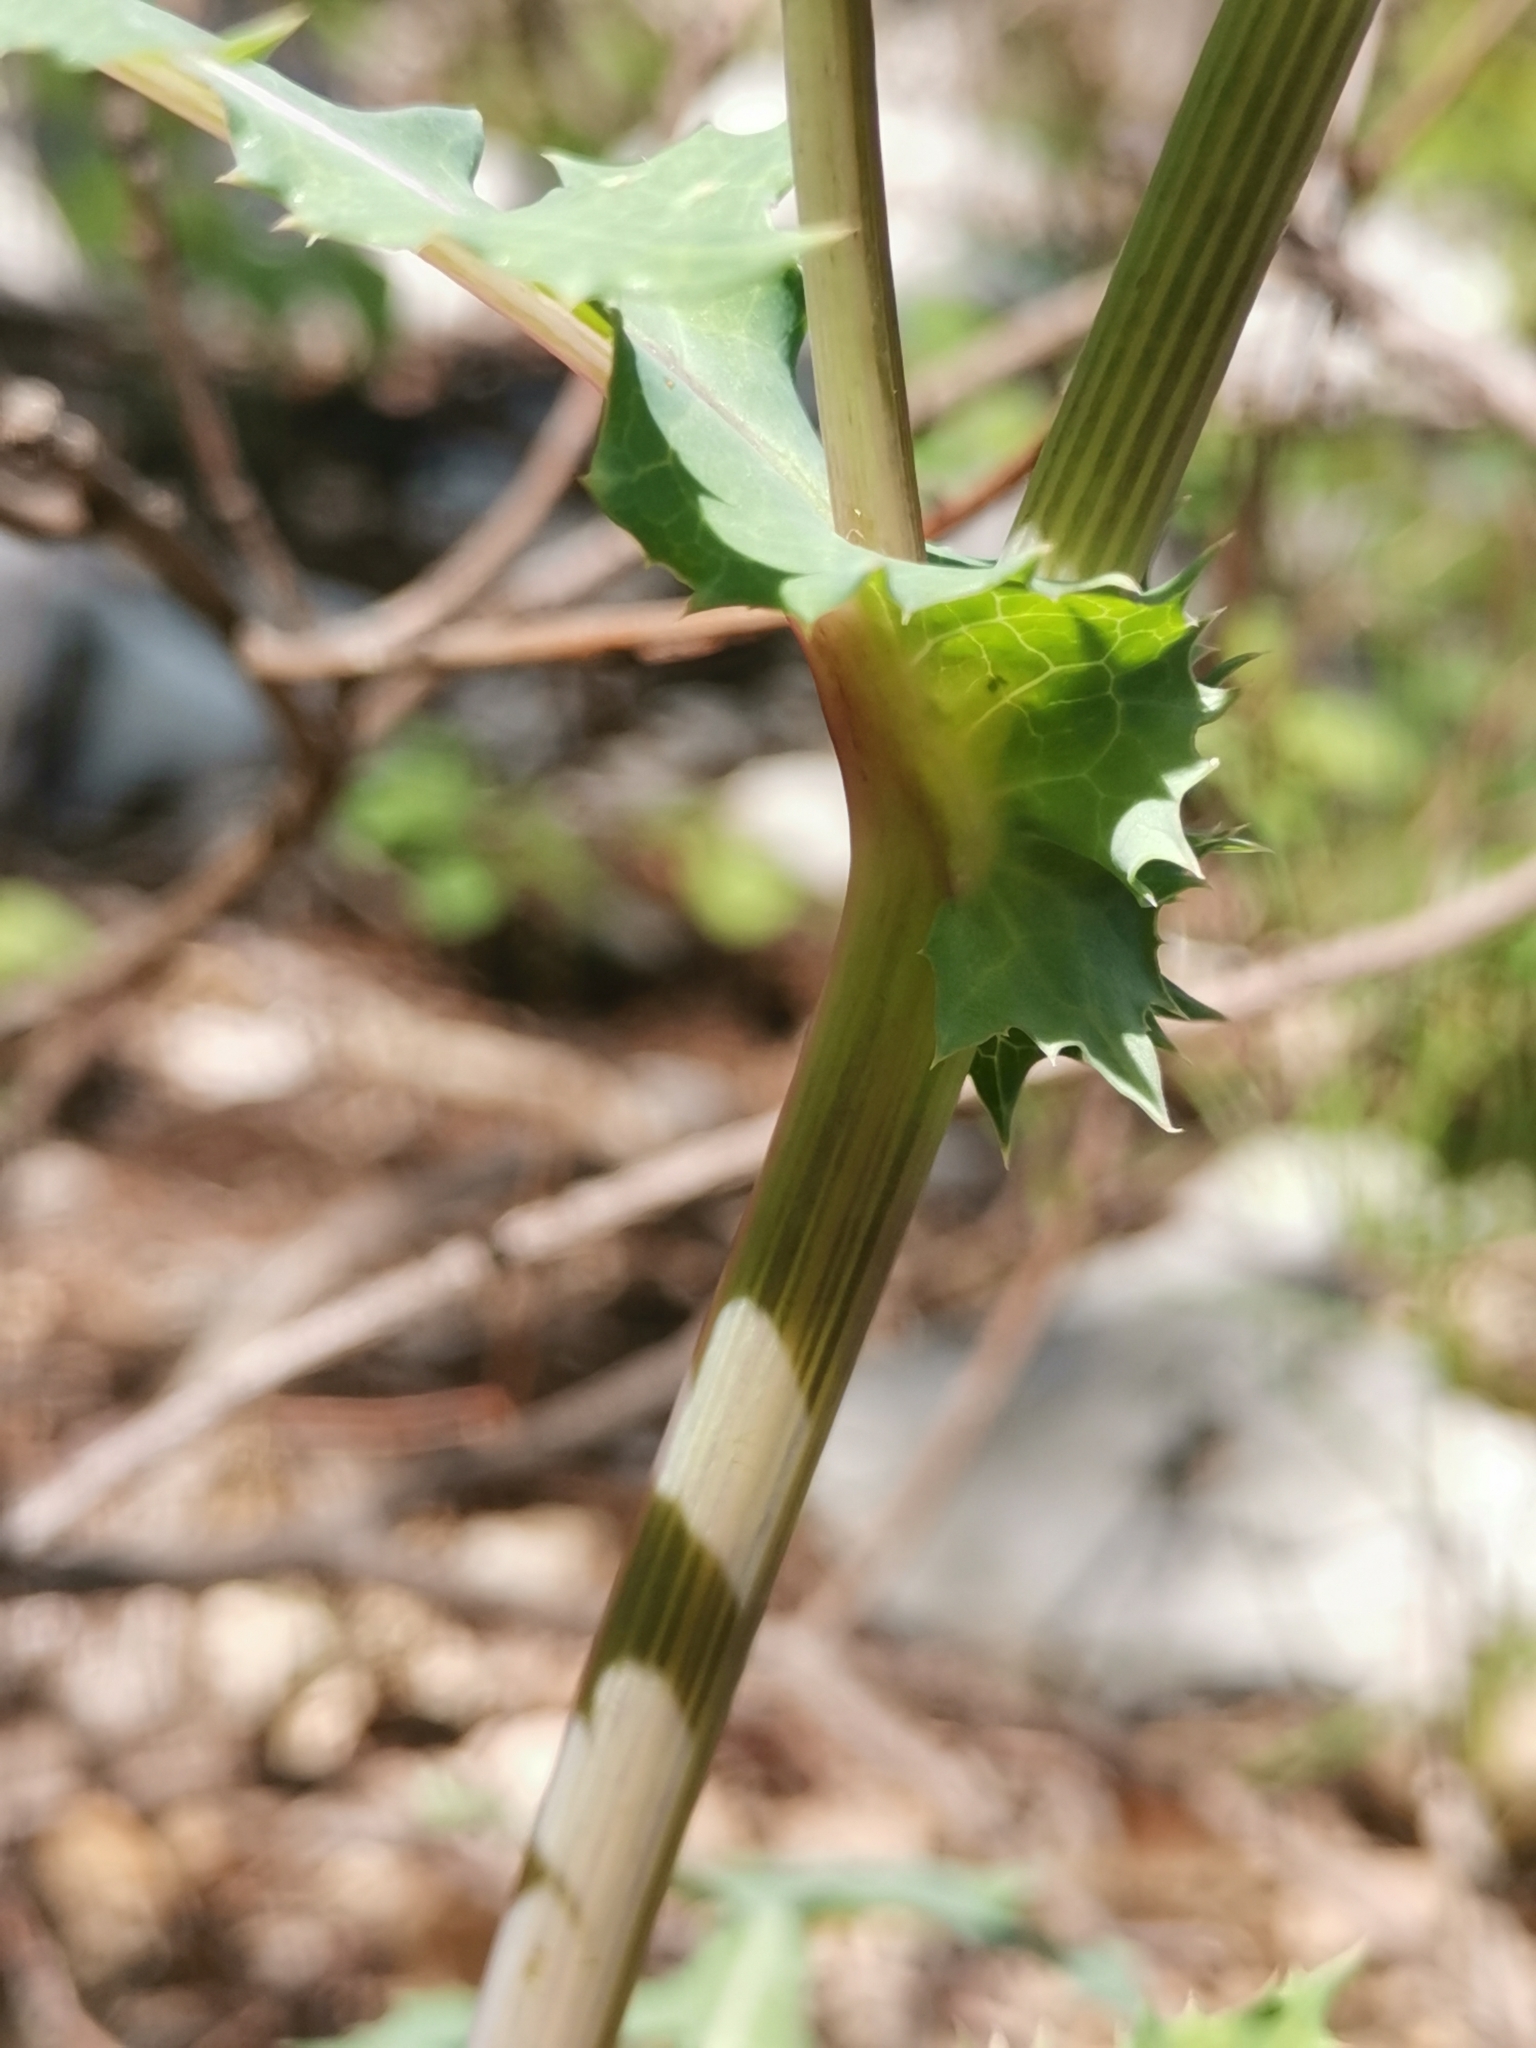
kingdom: Plantae
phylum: Tracheophyta
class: Magnoliopsida
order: Asterales
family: Asteraceae
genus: Sonchus
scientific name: Sonchus asper
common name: Prickly sow-thistle
